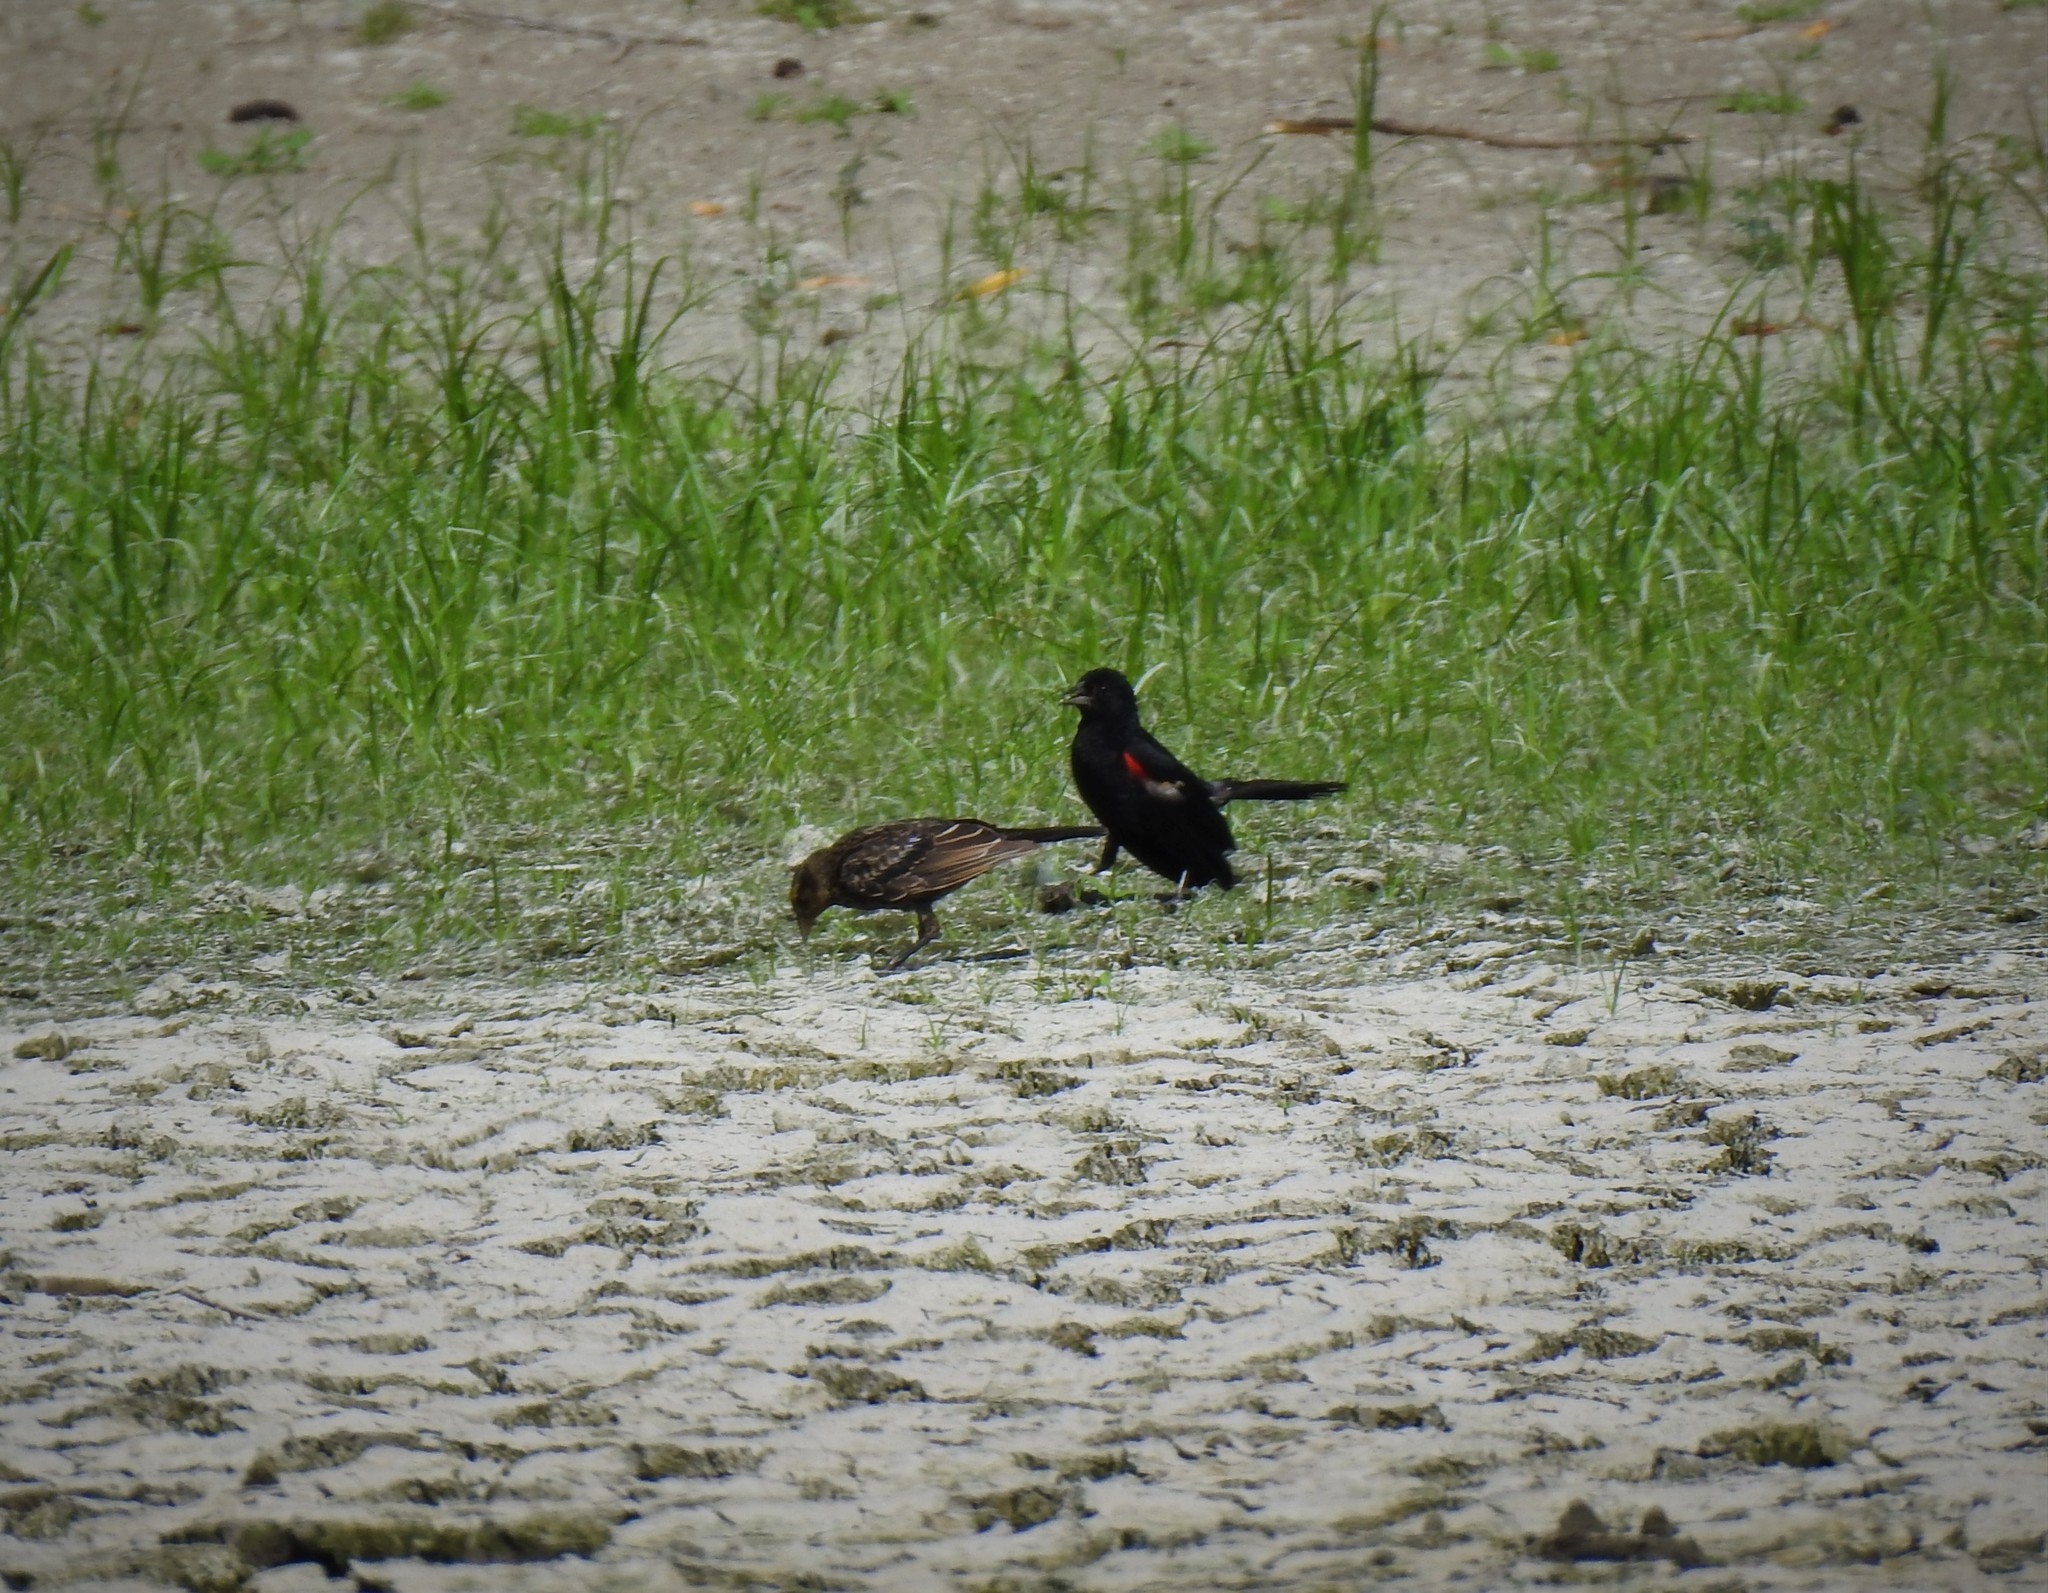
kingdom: Animalia
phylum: Chordata
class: Aves
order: Passeriformes
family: Icteridae
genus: Agelaius
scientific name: Agelaius phoeniceus
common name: Red-winged blackbird
